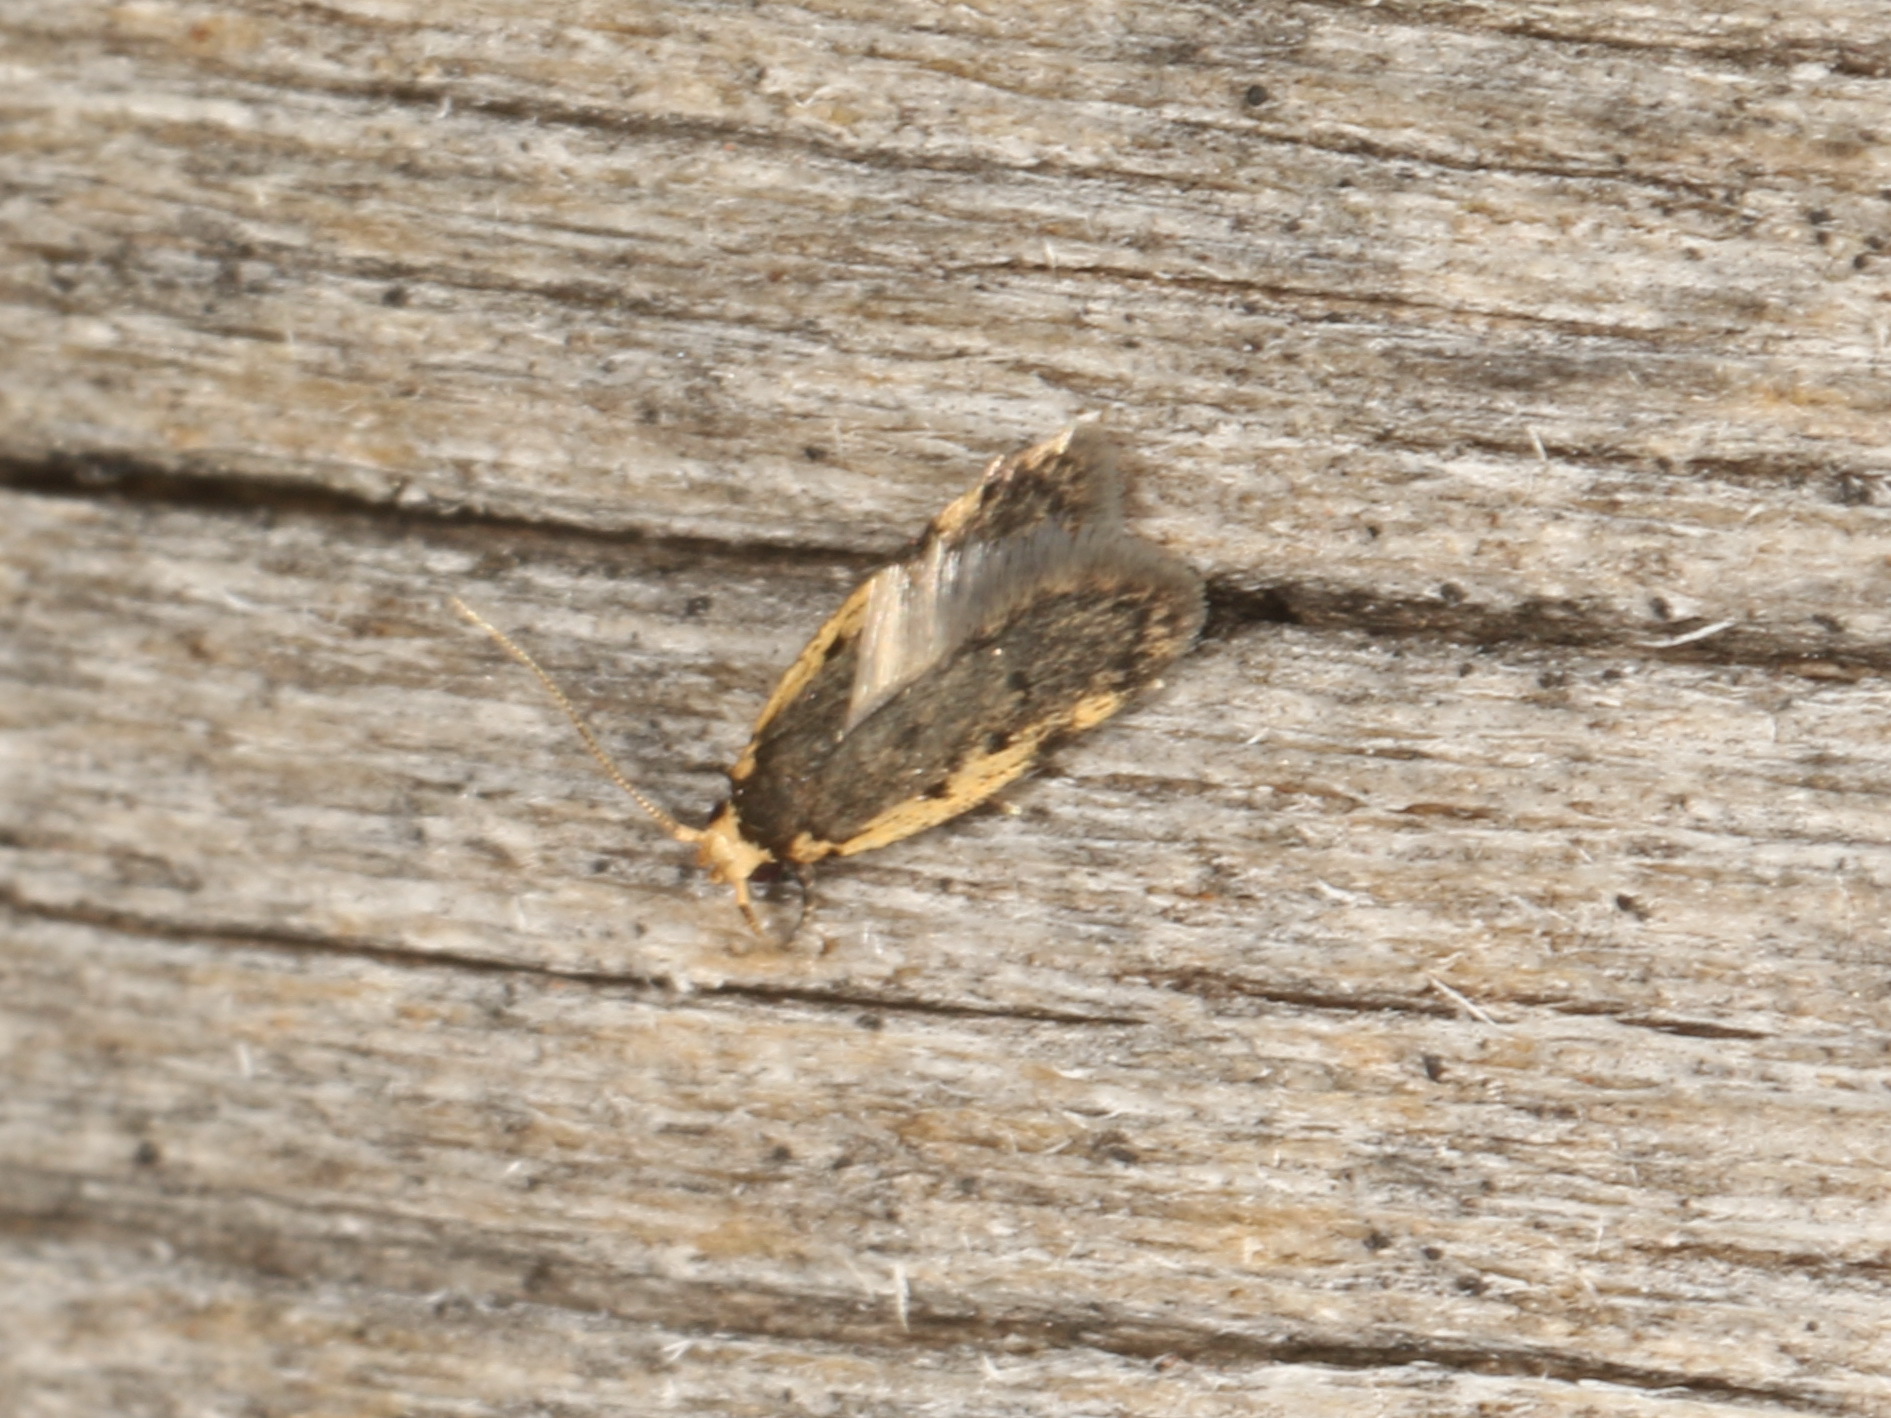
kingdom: Animalia
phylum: Arthropoda
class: Insecta
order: Lepidoptera
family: Oecophoridae
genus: Hoplostega
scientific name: Hoplostega ochroma
